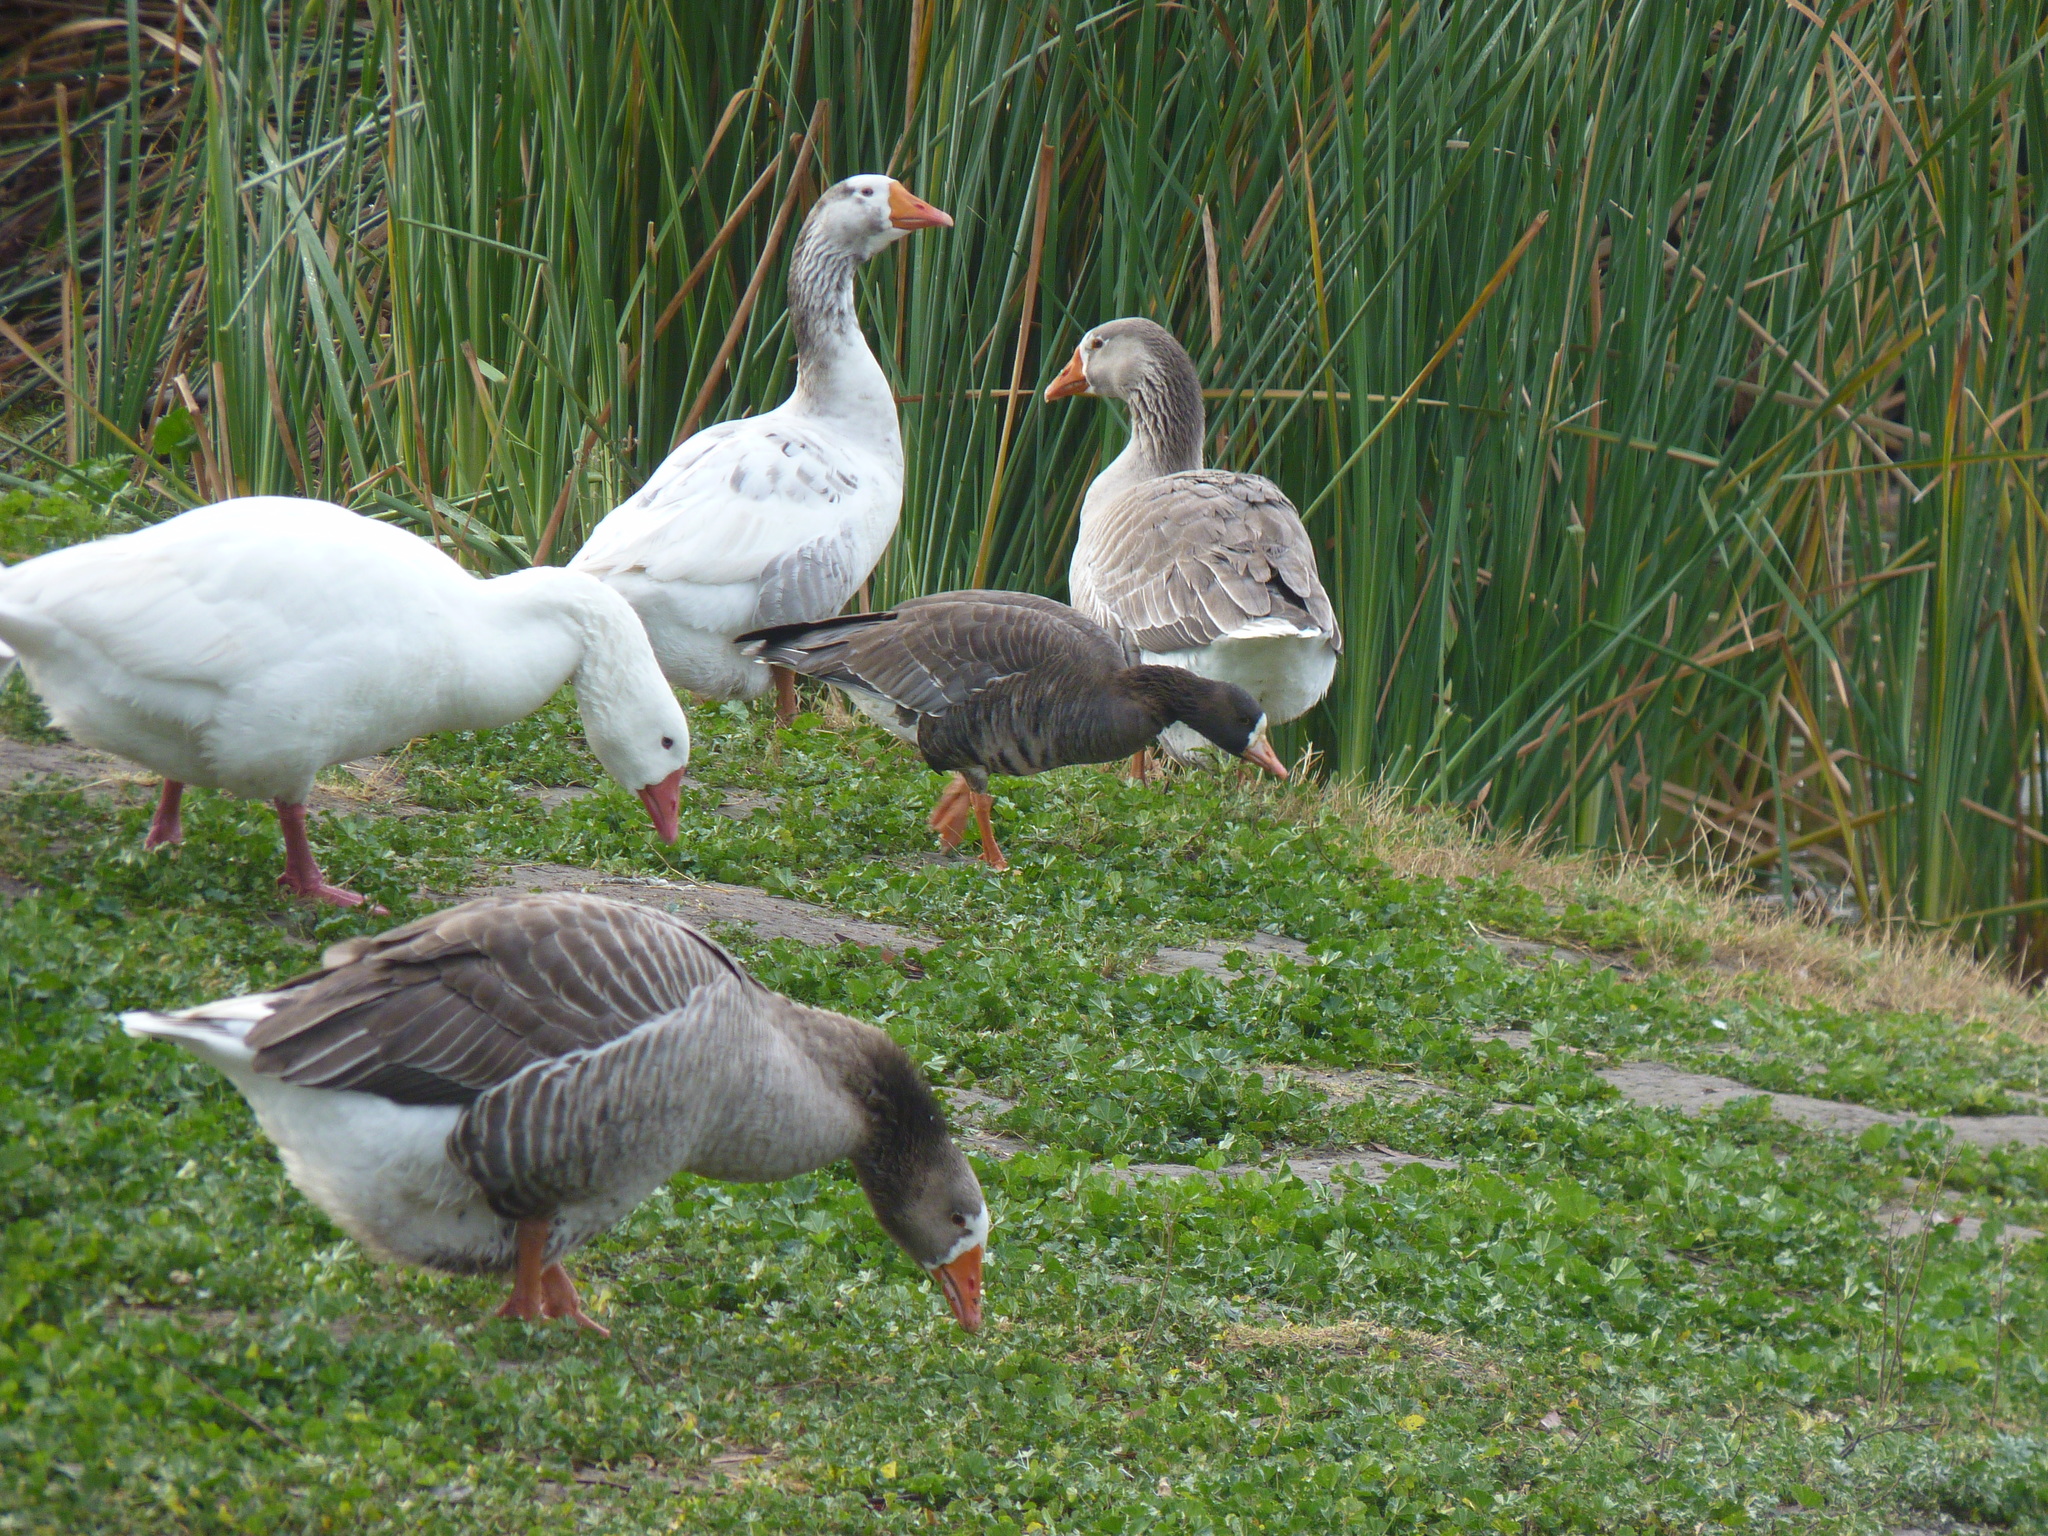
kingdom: Animalia
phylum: Chordata
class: Aves
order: Anseriformes
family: Anatidae
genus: Anser
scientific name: Anser albifrons
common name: Greater white-fronted goose
